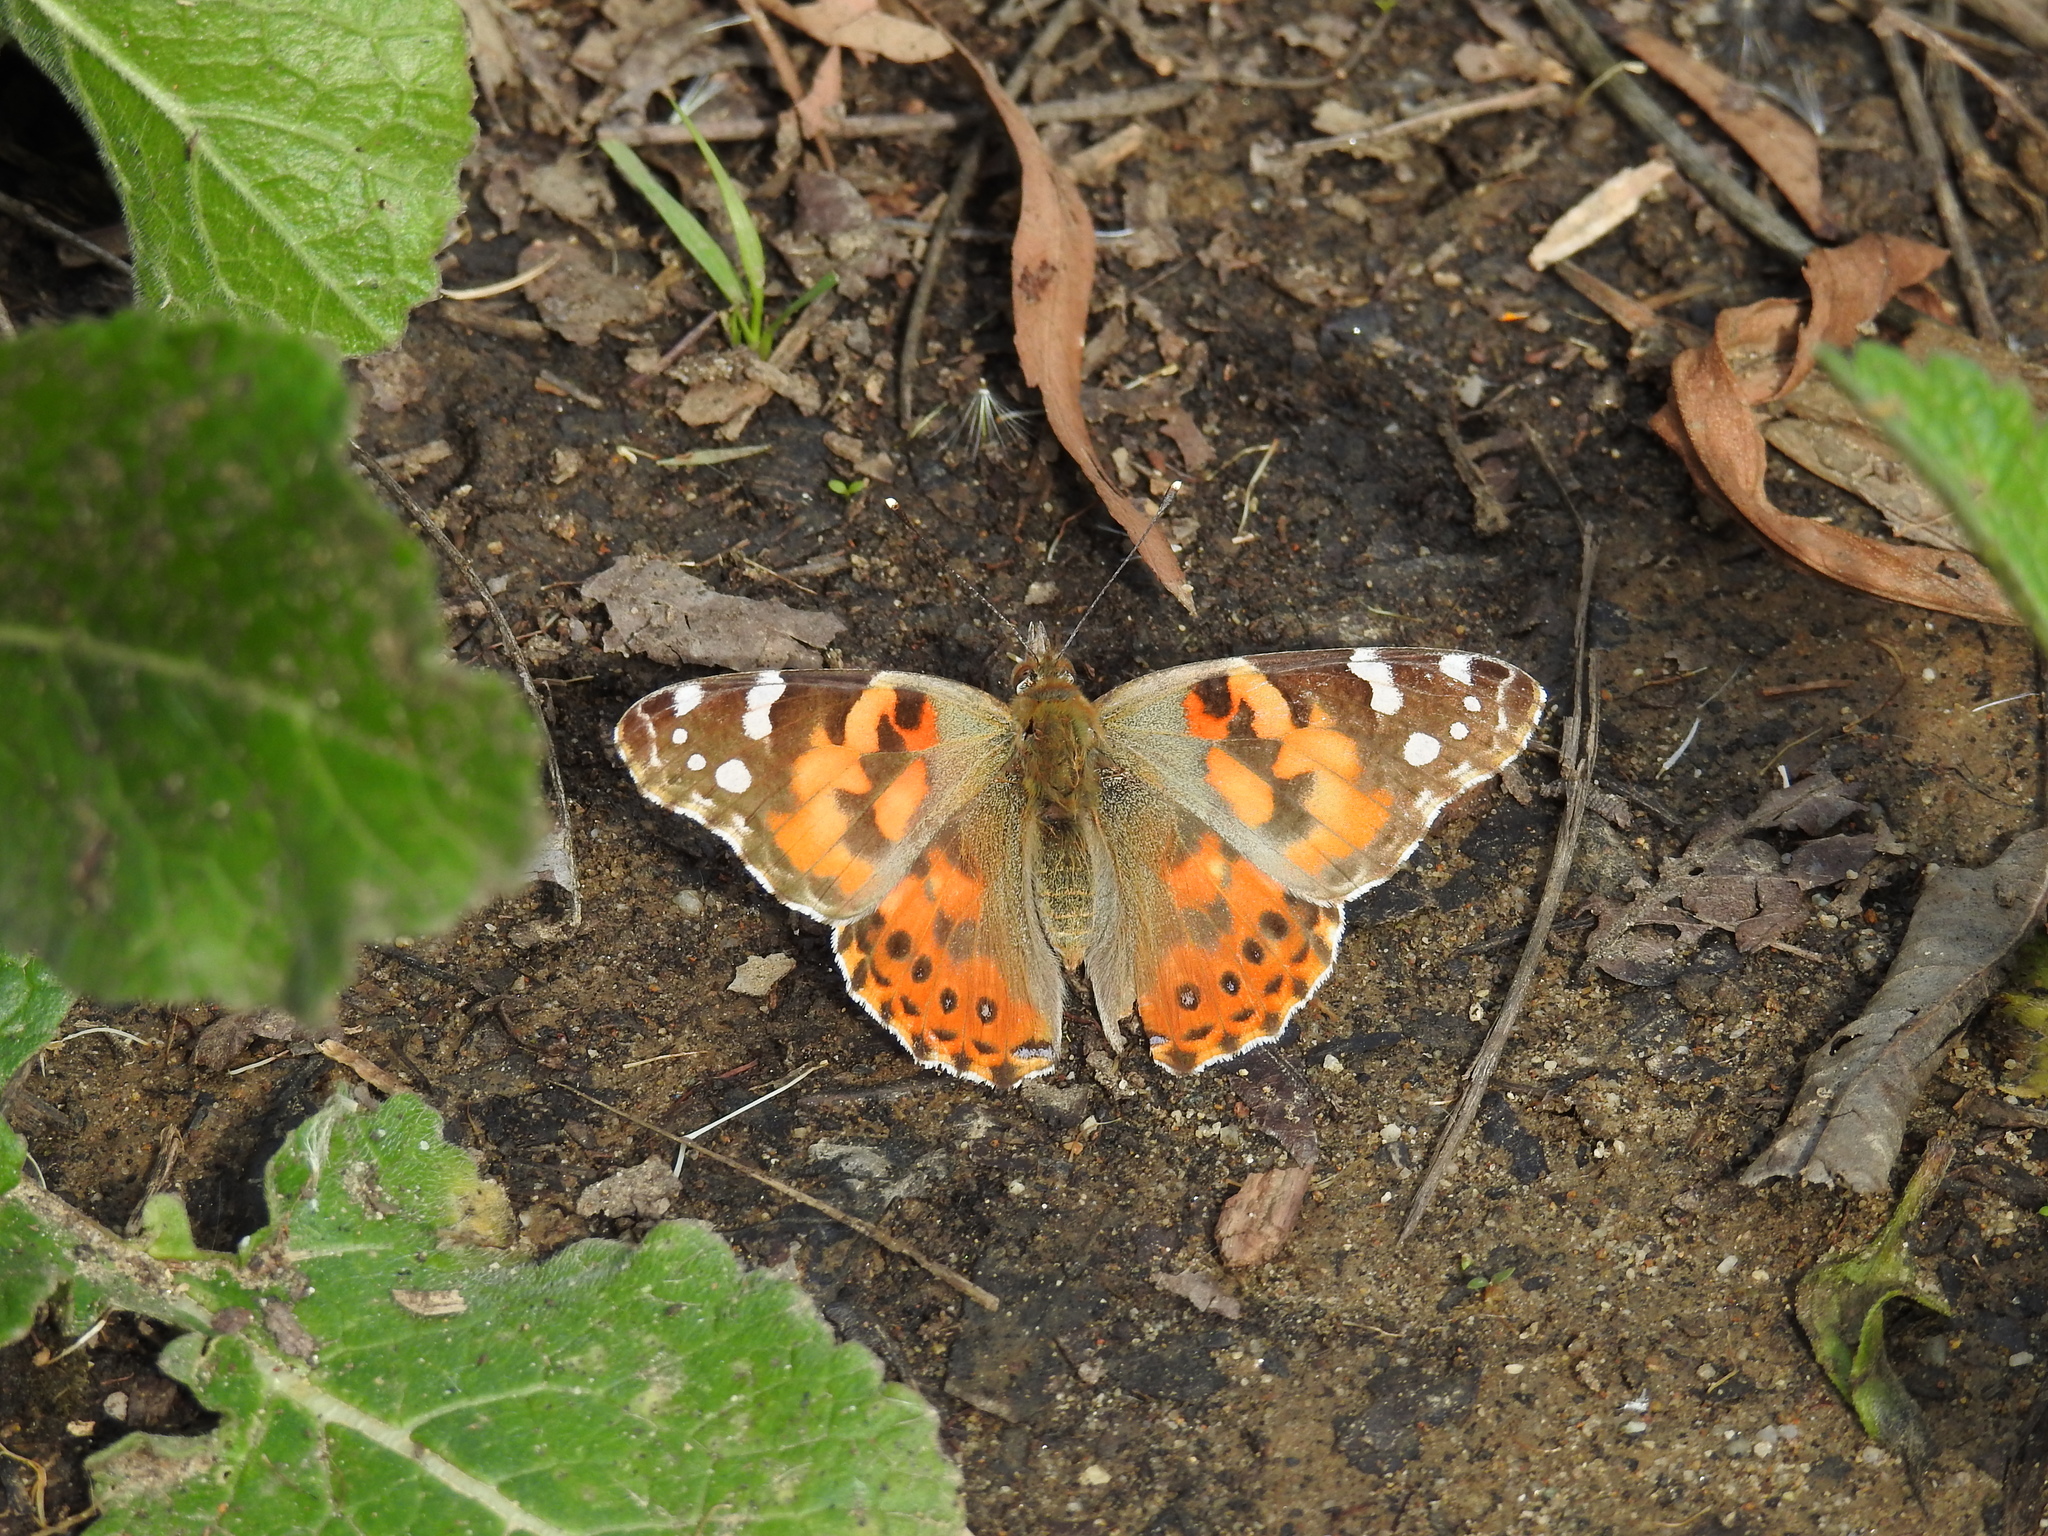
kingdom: Animalia
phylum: Arthropoda
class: Insecta
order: Lepidoptera
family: Nymphalidae
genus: Vanessa
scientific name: Vanessa cardui
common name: Painted lady
